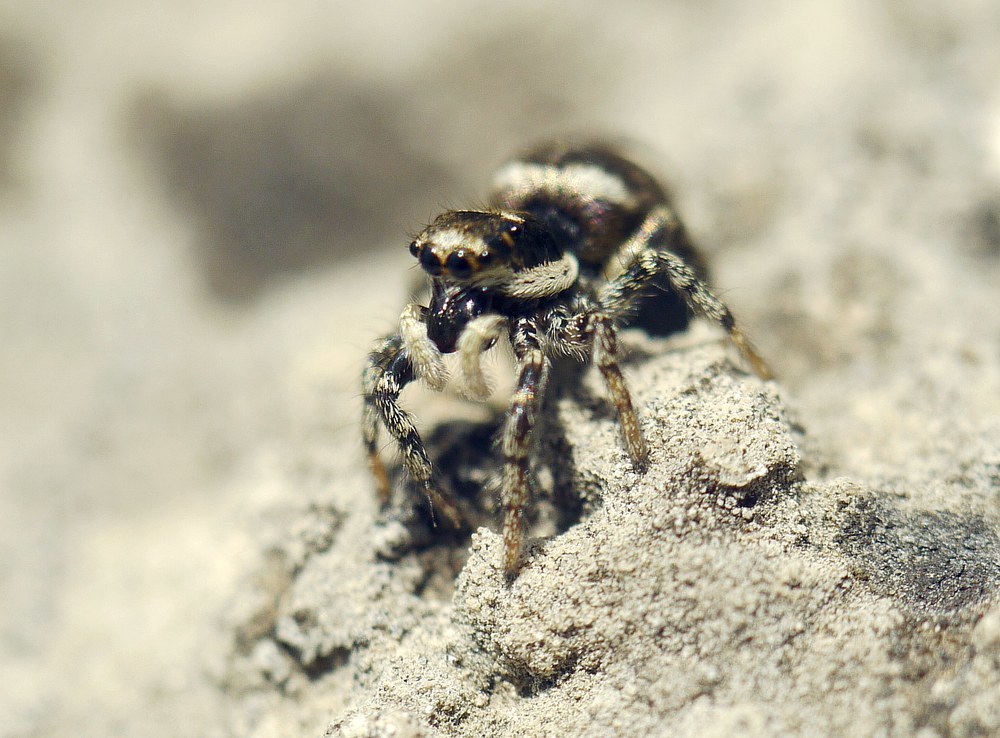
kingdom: Animalia
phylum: Arthropoda
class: Arachnida
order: Araneae
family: Salticidae
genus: Salticus
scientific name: Salticus scenicus
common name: Zebra jumper
